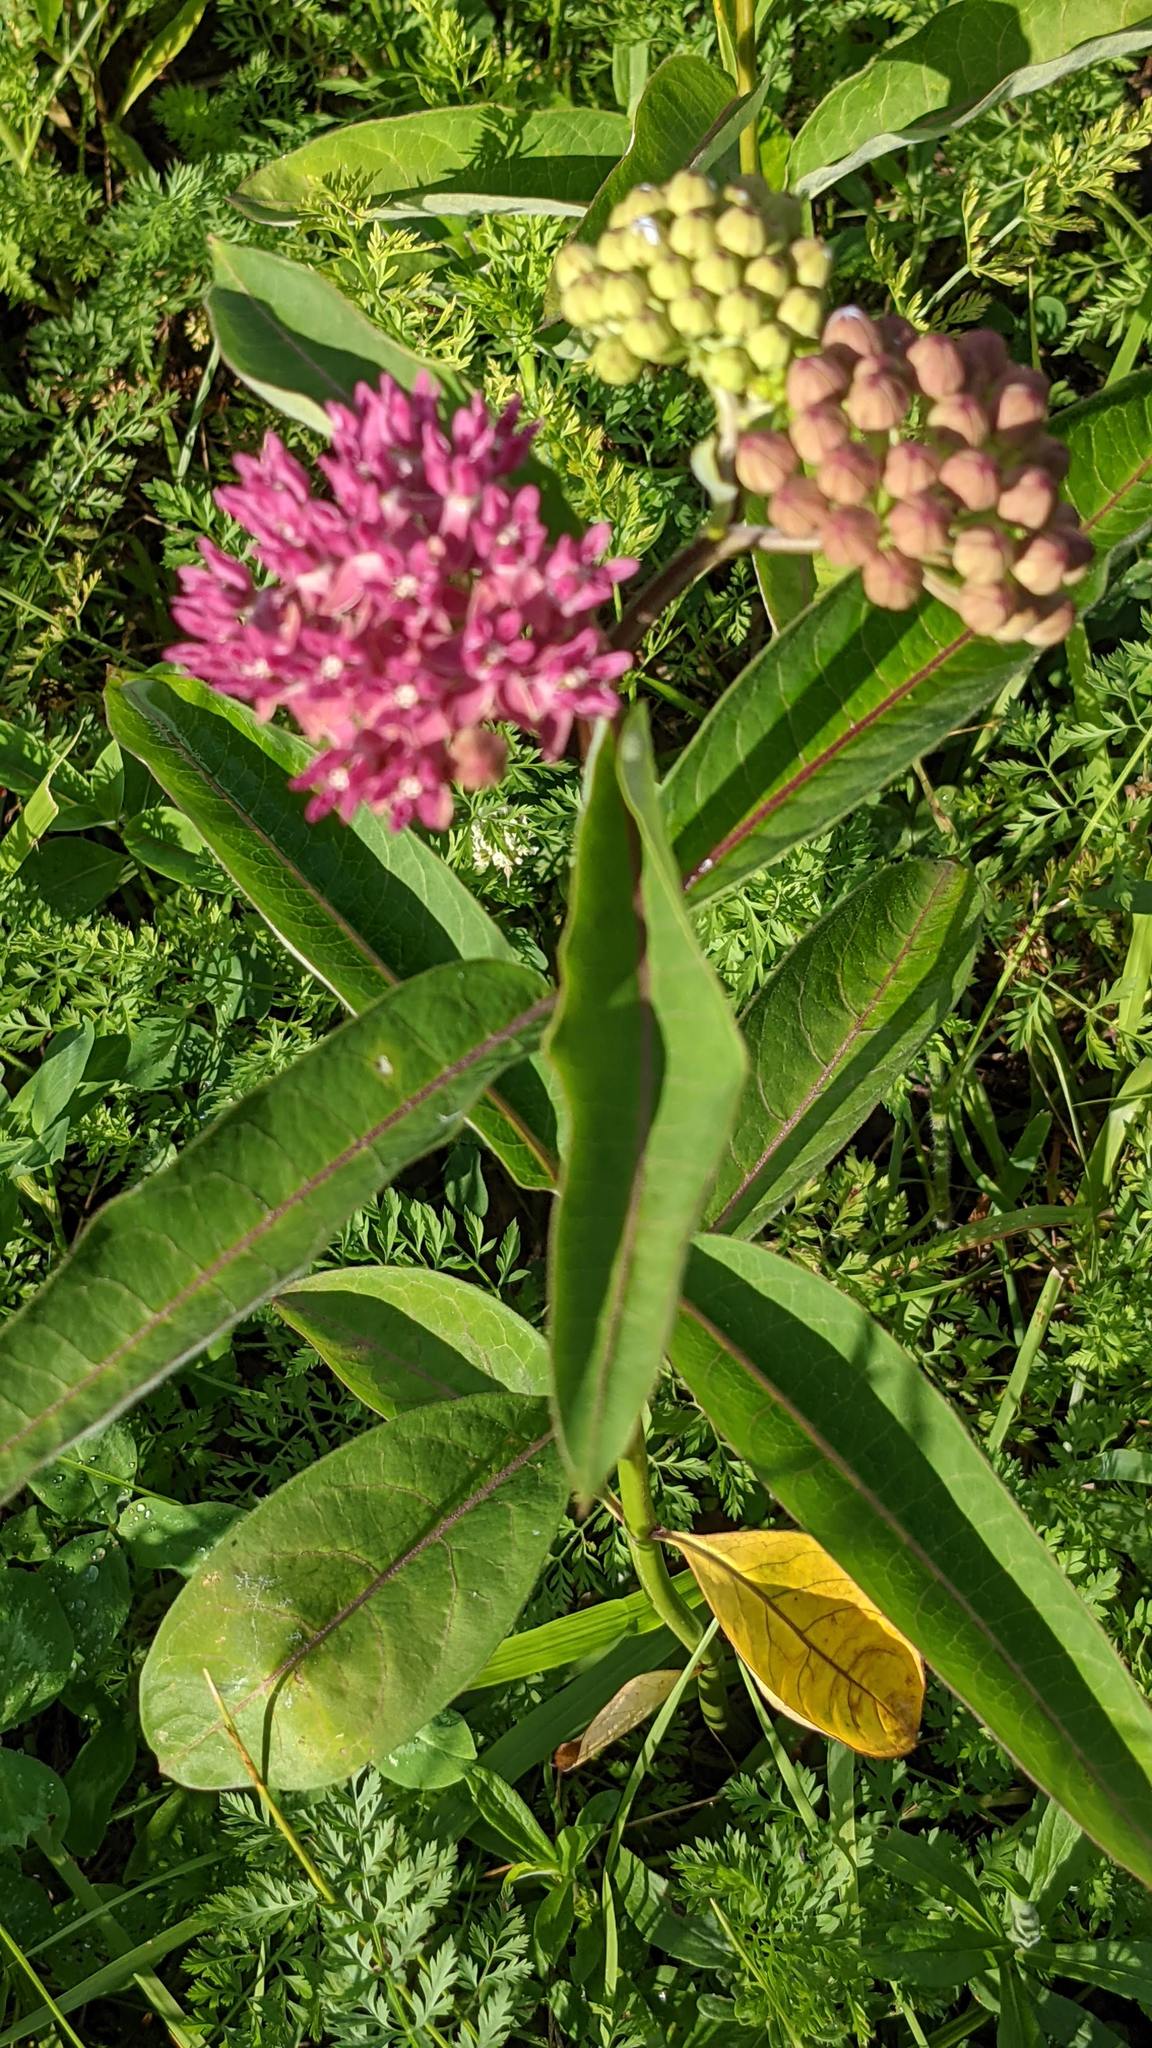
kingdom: Plantae
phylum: Tracheophyta
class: Magnoliopsida
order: Gentianales
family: Apocynaceae
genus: Asclepias
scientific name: Asclepias purpurascens
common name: Purple milkweed
